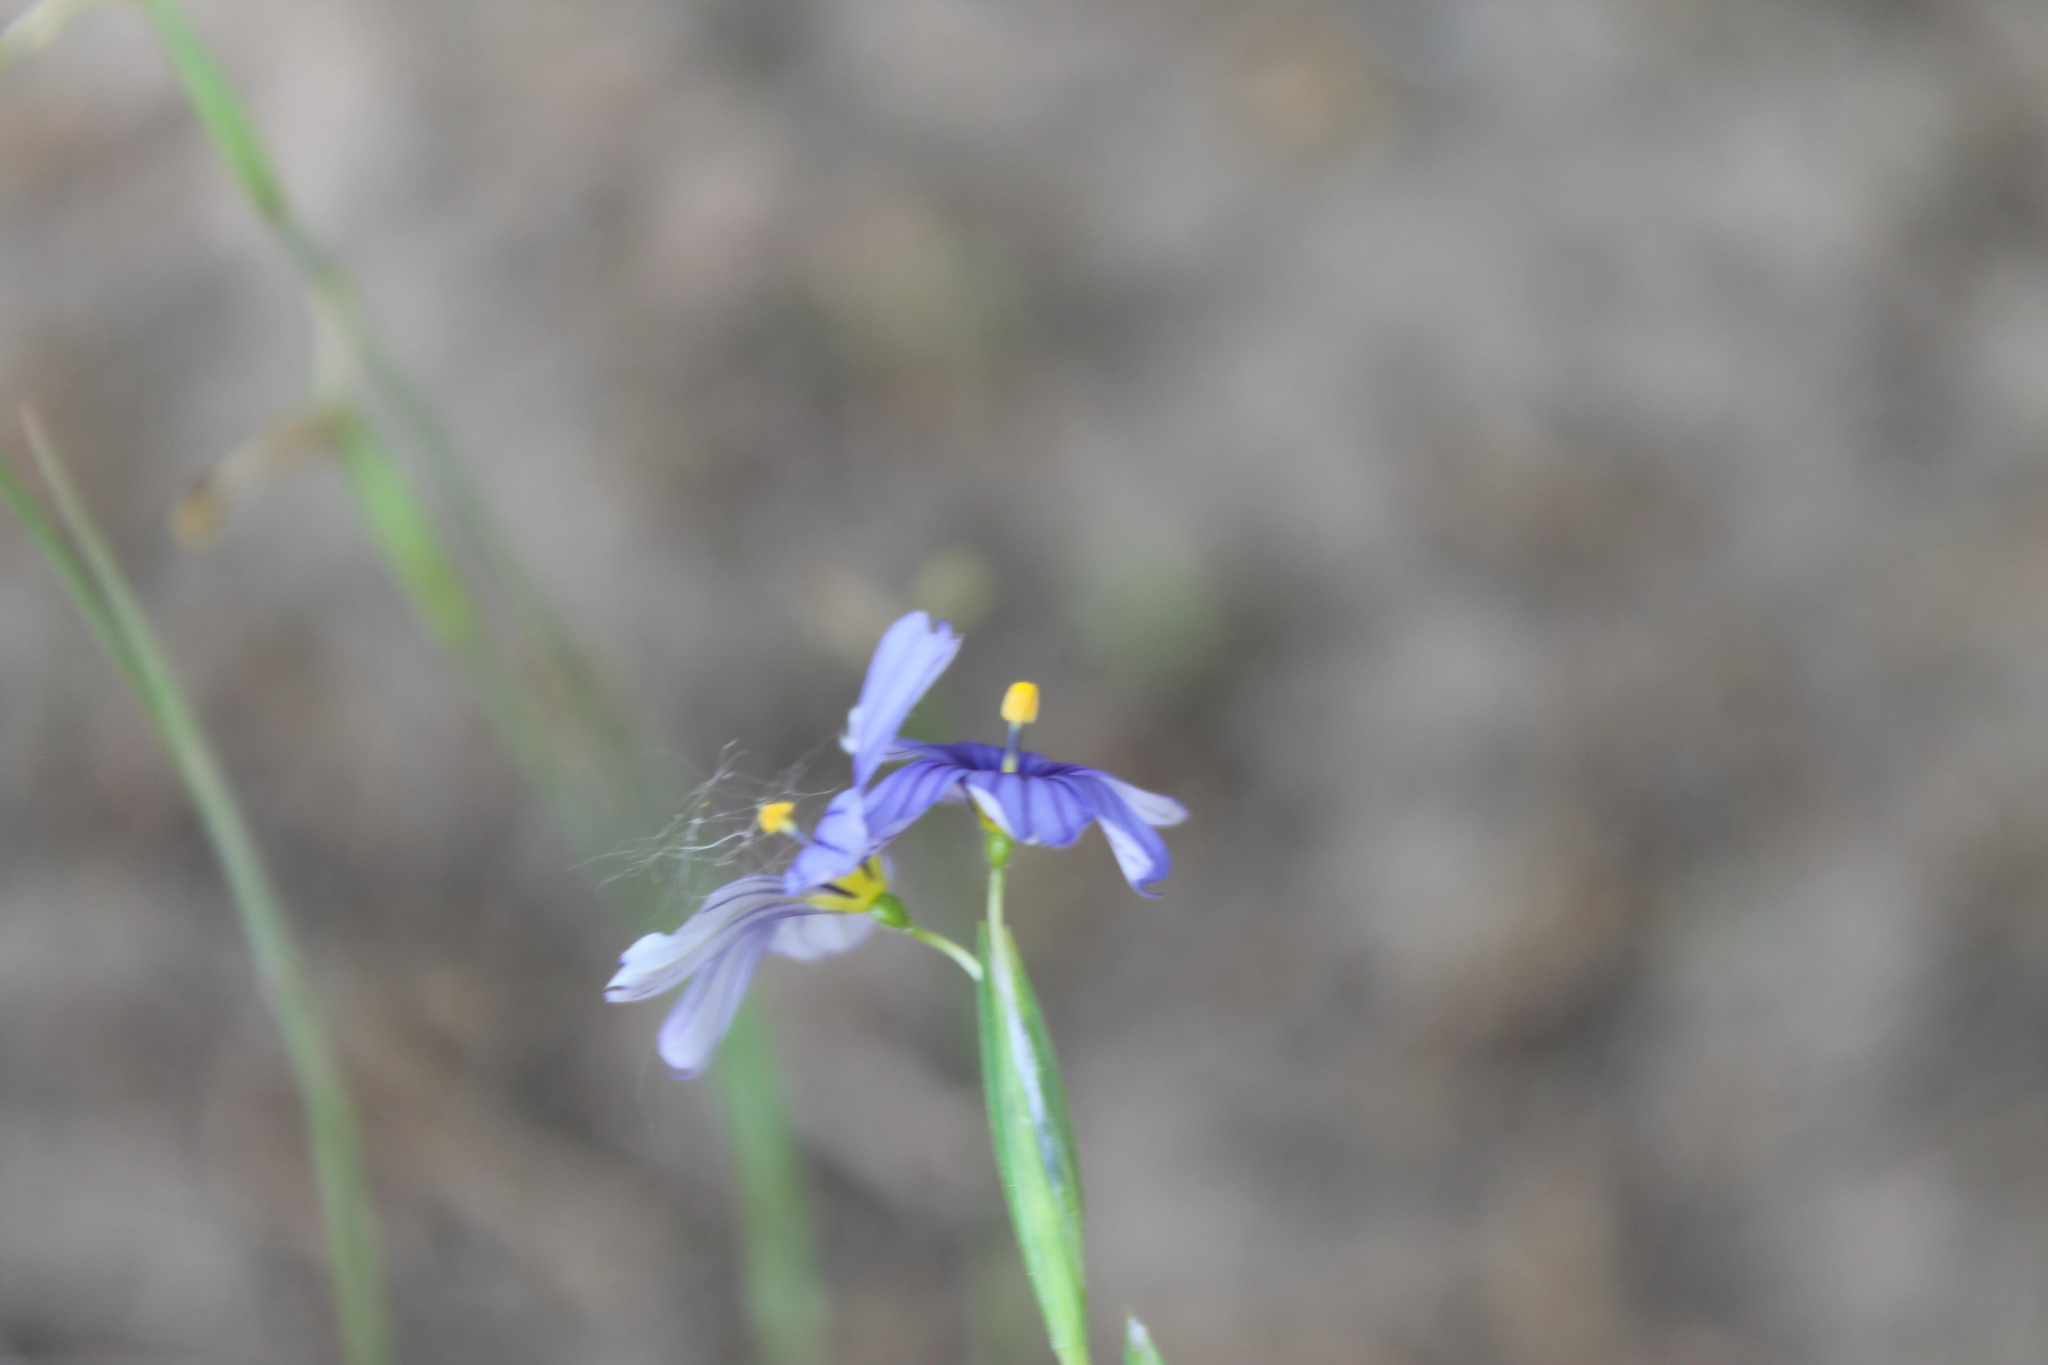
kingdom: Plantae
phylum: Tracheophyta
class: Liliopsida
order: Asparagales
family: Iridaceae
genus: Sisyrinchium
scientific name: Sisyrinchium bellum
